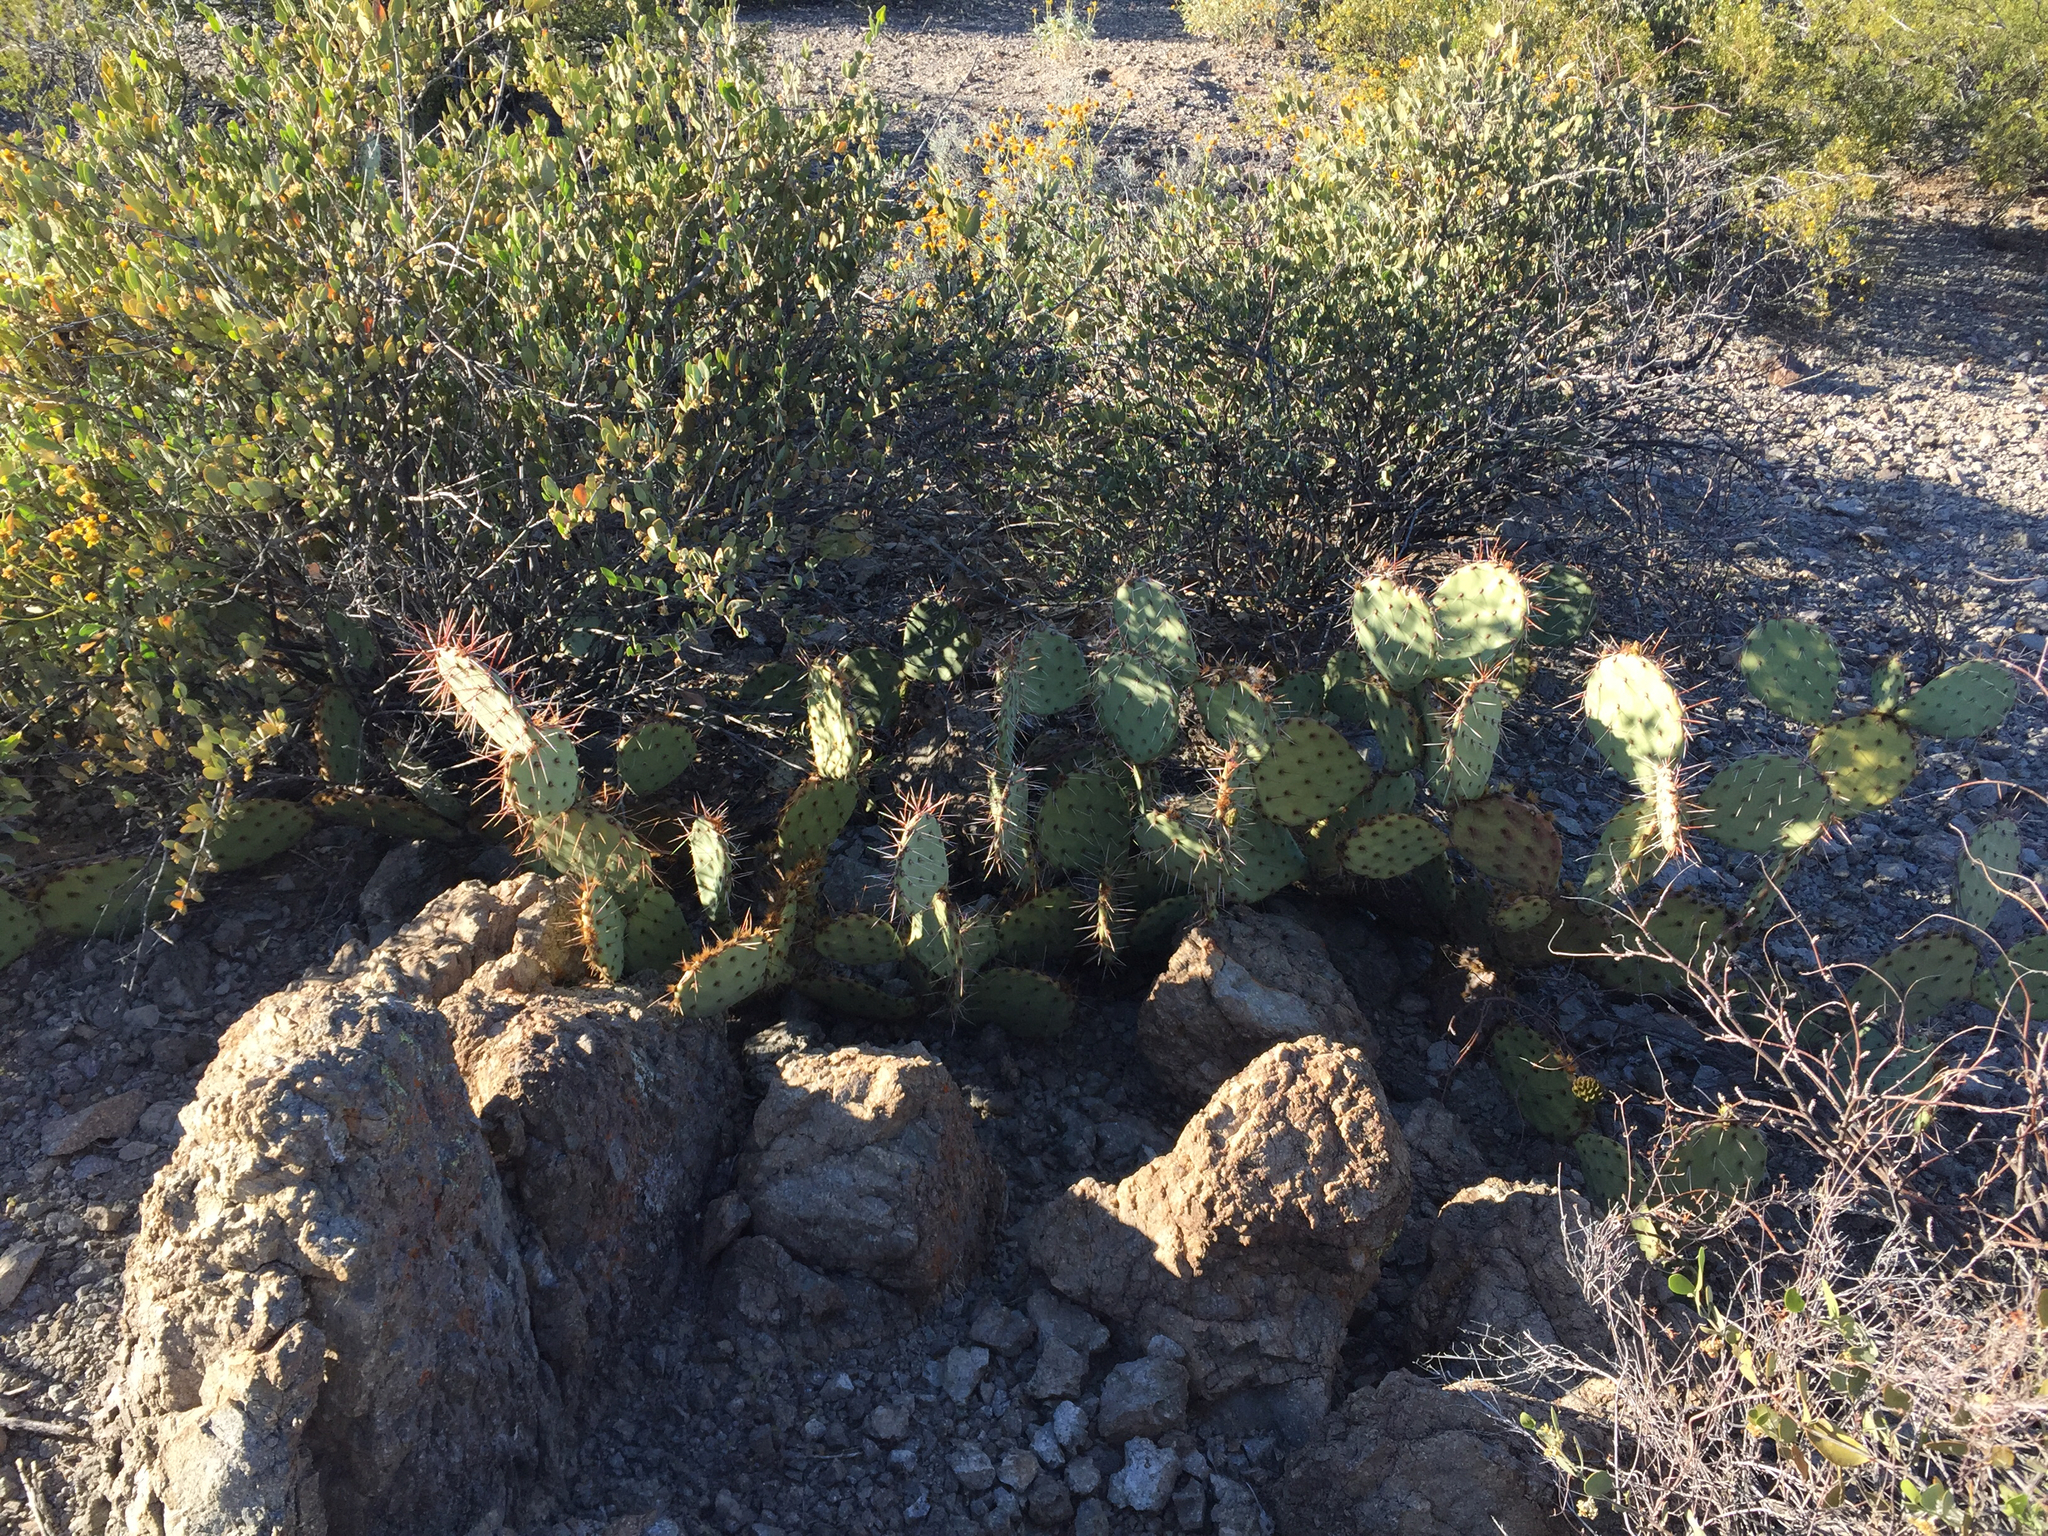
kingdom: Plantae
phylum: Tracheophyta
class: Magnoliopsida
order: Caryophyllales
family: Cactaceae
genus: Opuntia
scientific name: Opuntia phaeacantha
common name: New mexico prickly-pear
